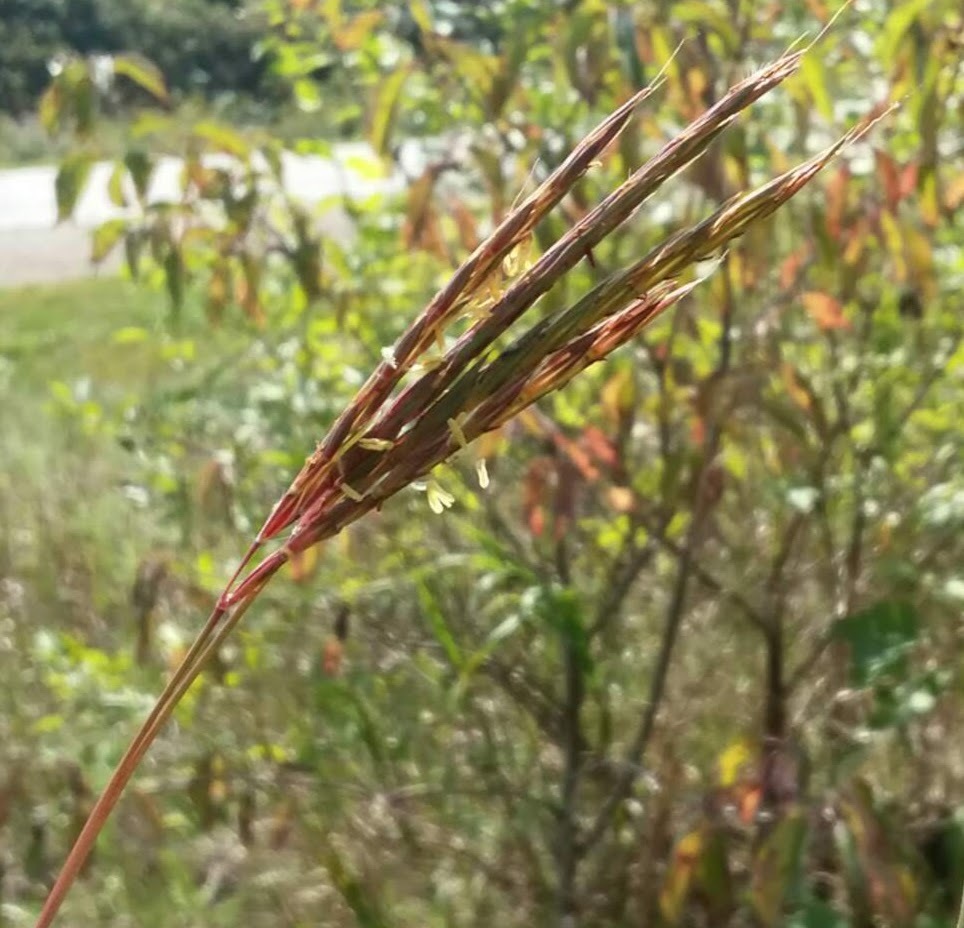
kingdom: Plantae
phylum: Tracheophyta
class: Liliopsida
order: Poales
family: Poaceae
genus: Andropogon
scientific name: Andropogon gerardi
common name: Big bluestem
